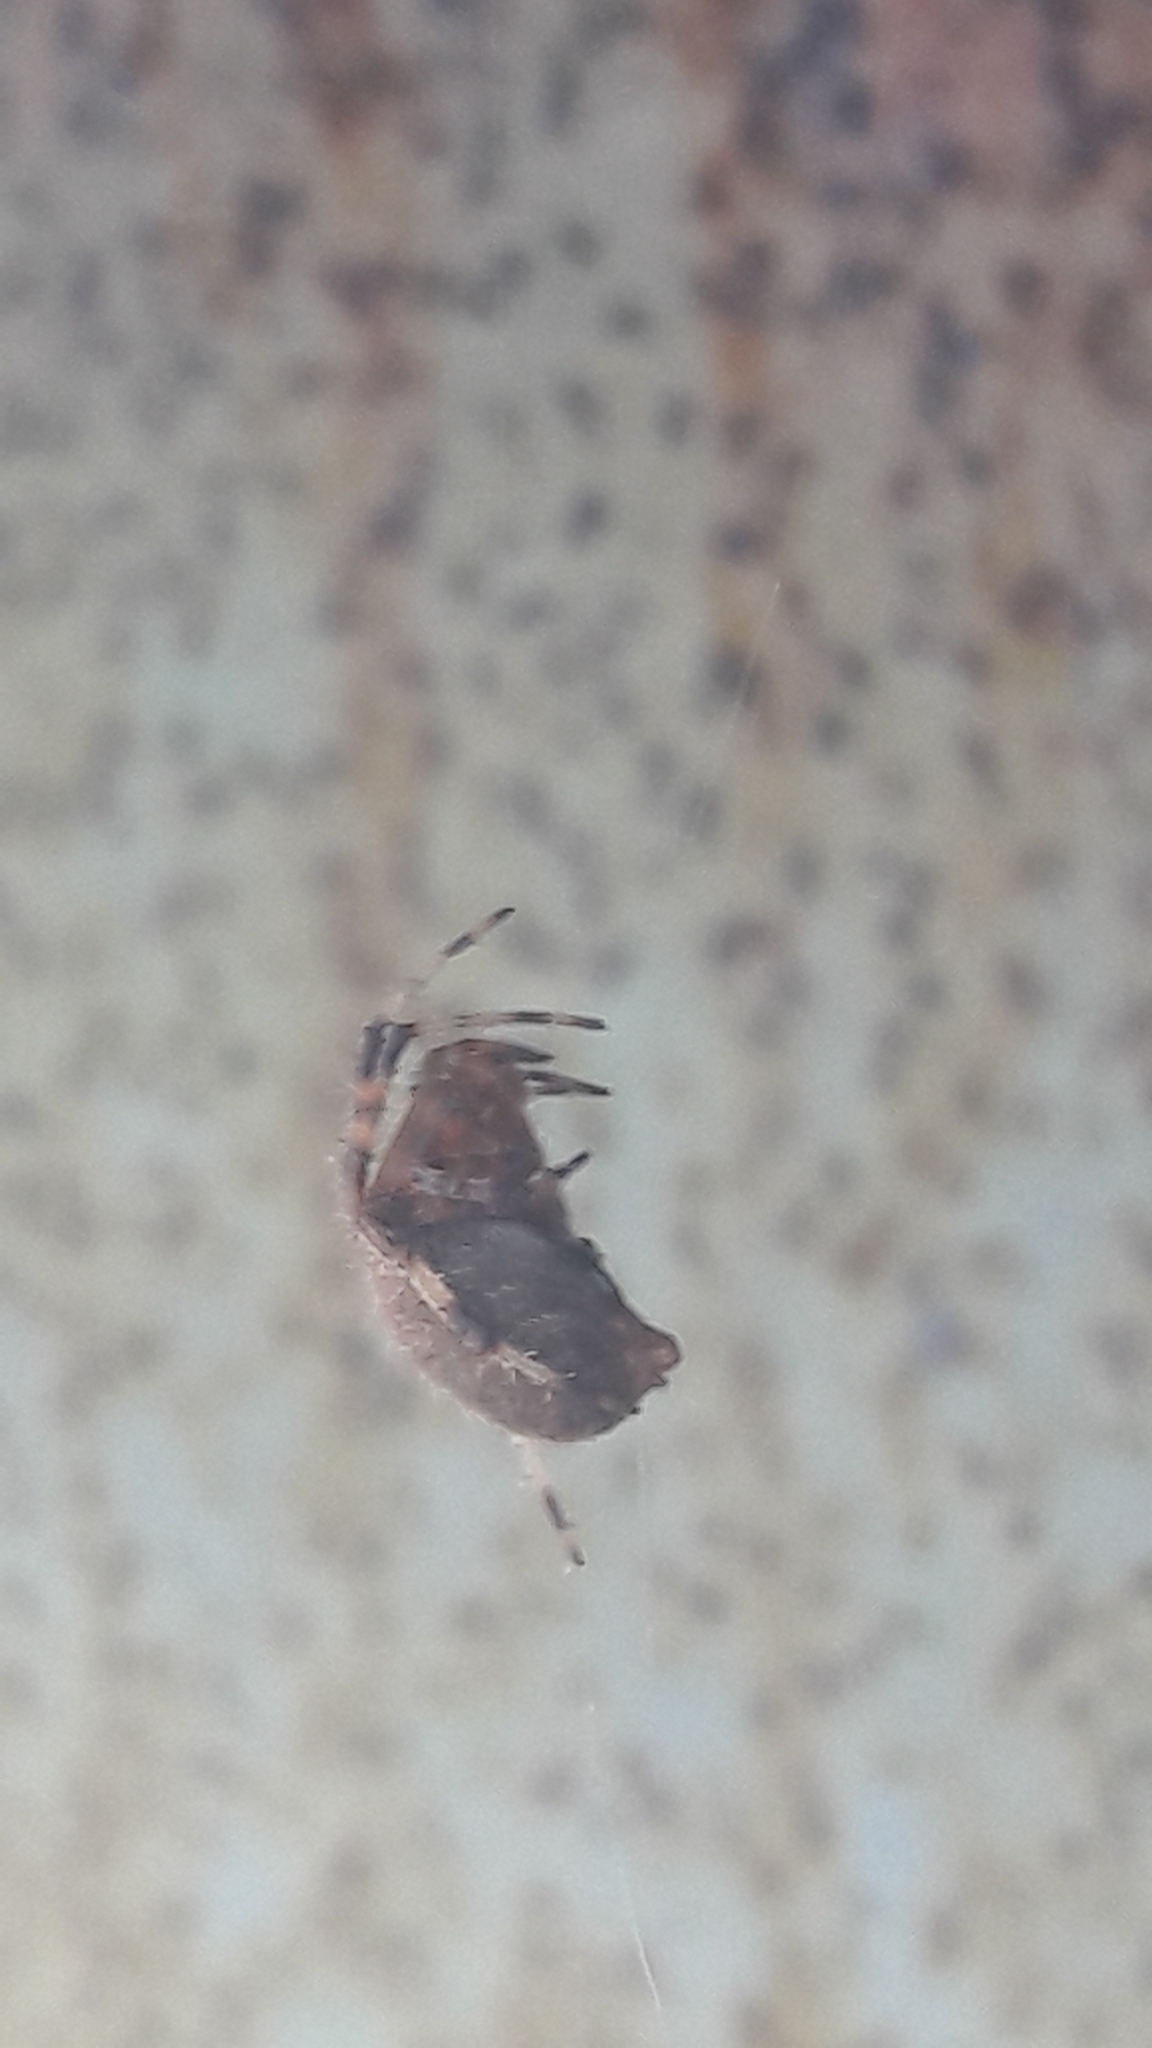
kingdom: Animalia
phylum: Arthropoda
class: Arachnida
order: Araneae
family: Araneidae
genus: Neoscona
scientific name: Neoscona crucifera
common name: Spotted orbweaver
